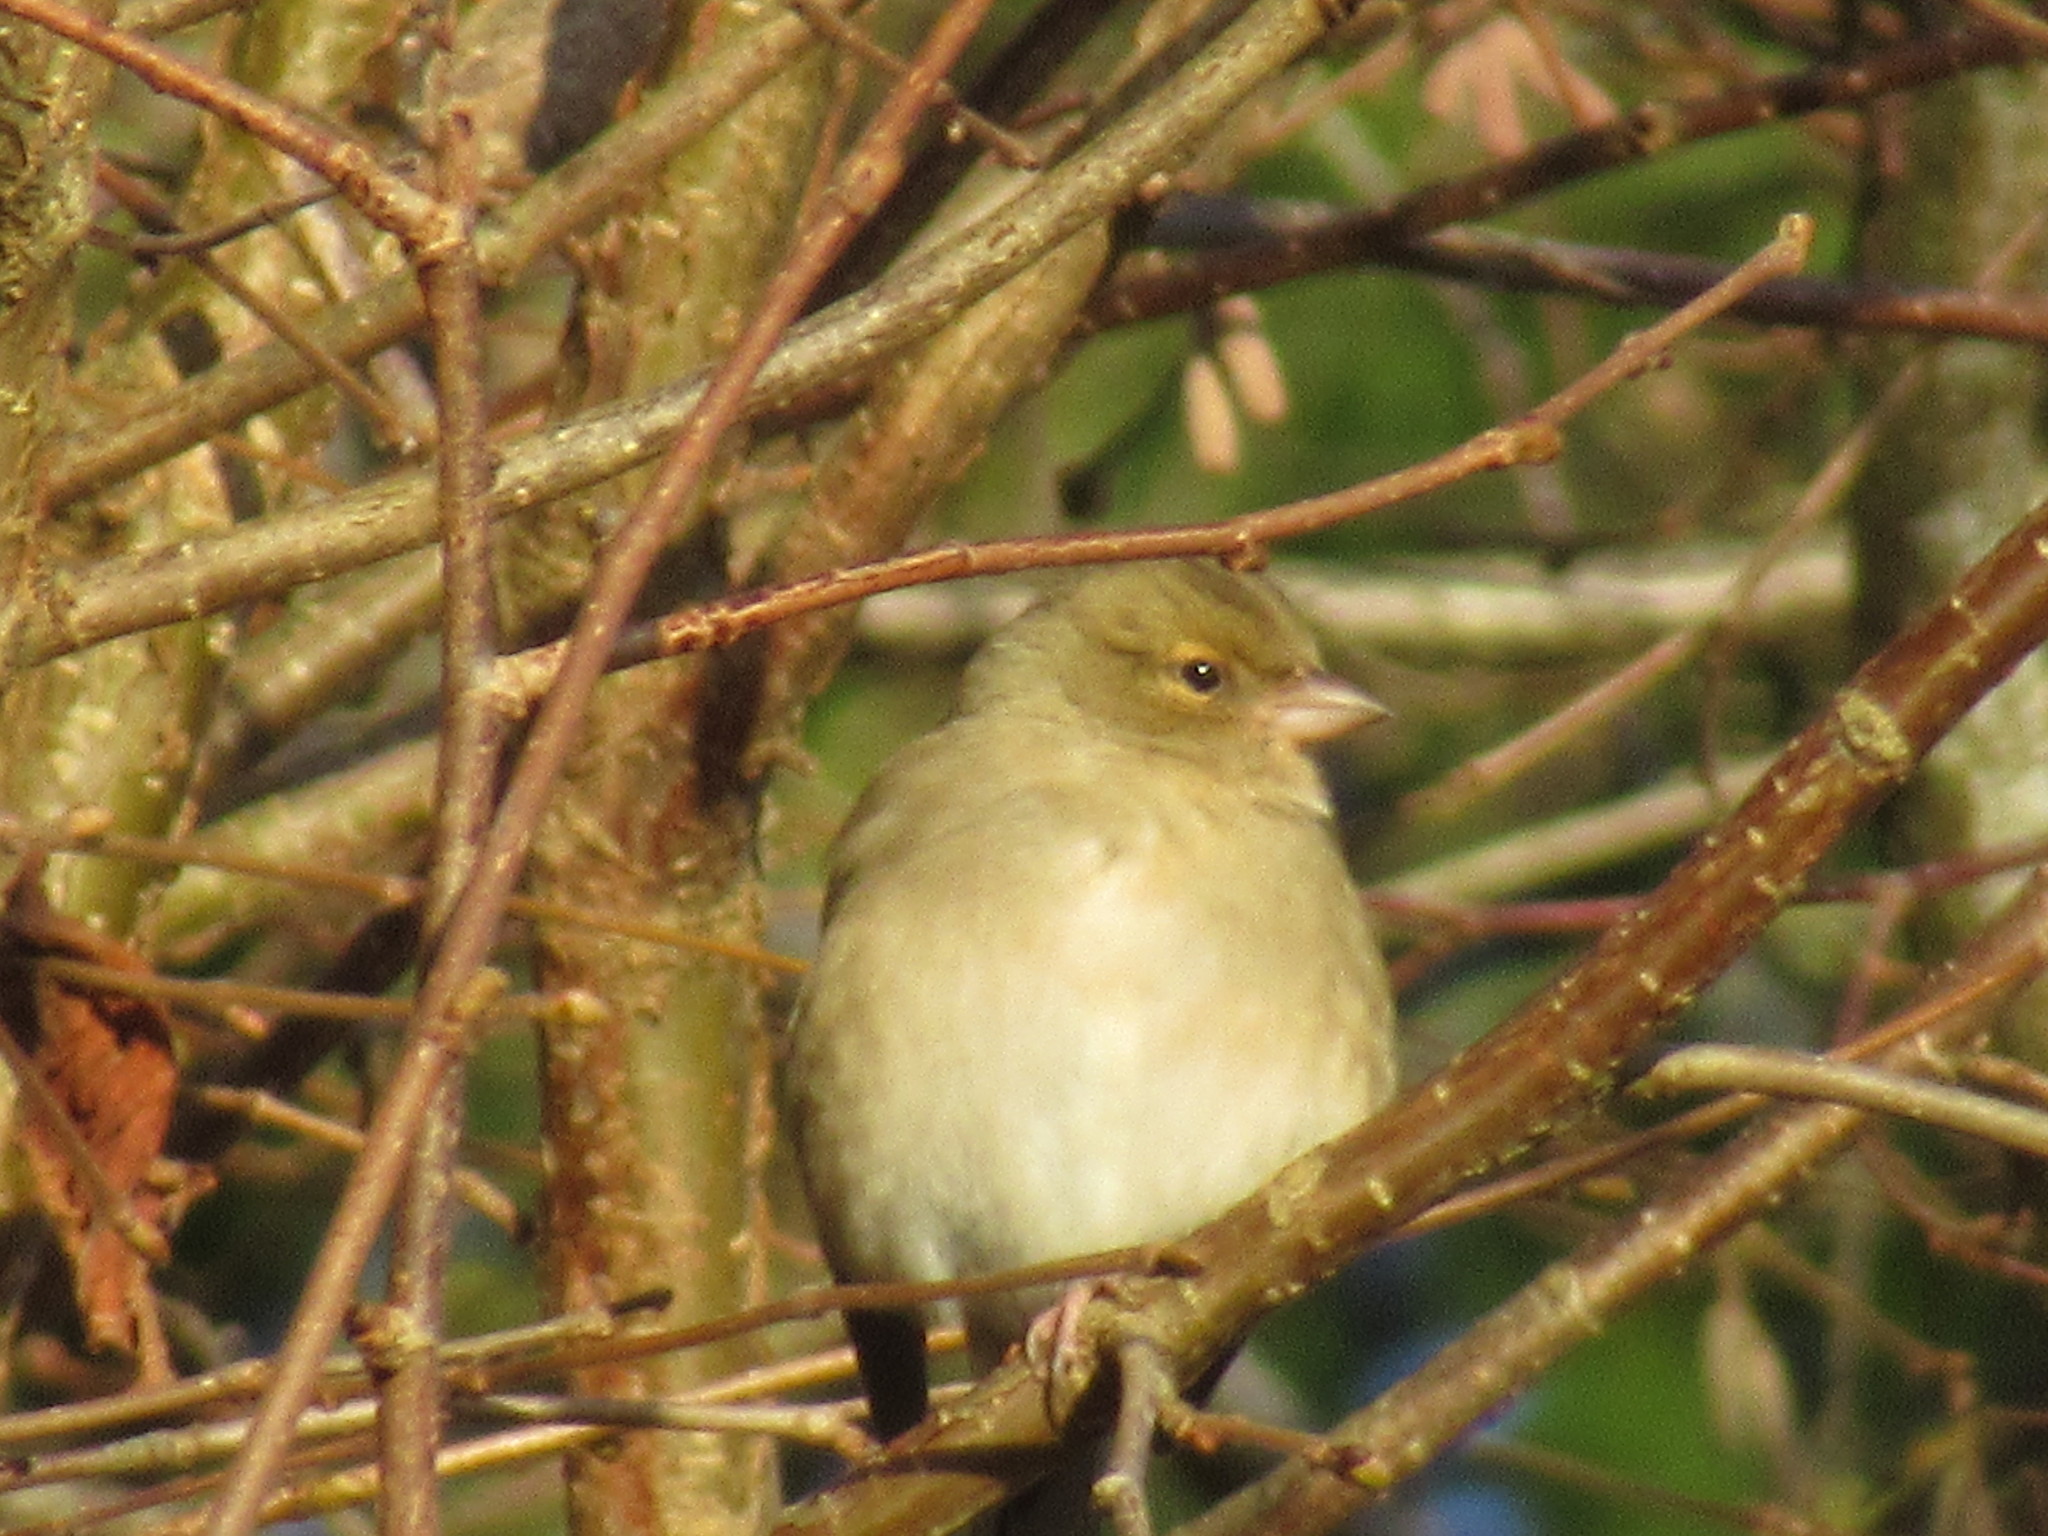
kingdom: Animalia
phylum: Chordata
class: Aves
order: Passeriformes
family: Fringillidae
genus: Fringilla
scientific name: Fringilla coelebs
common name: Common chaffinch
